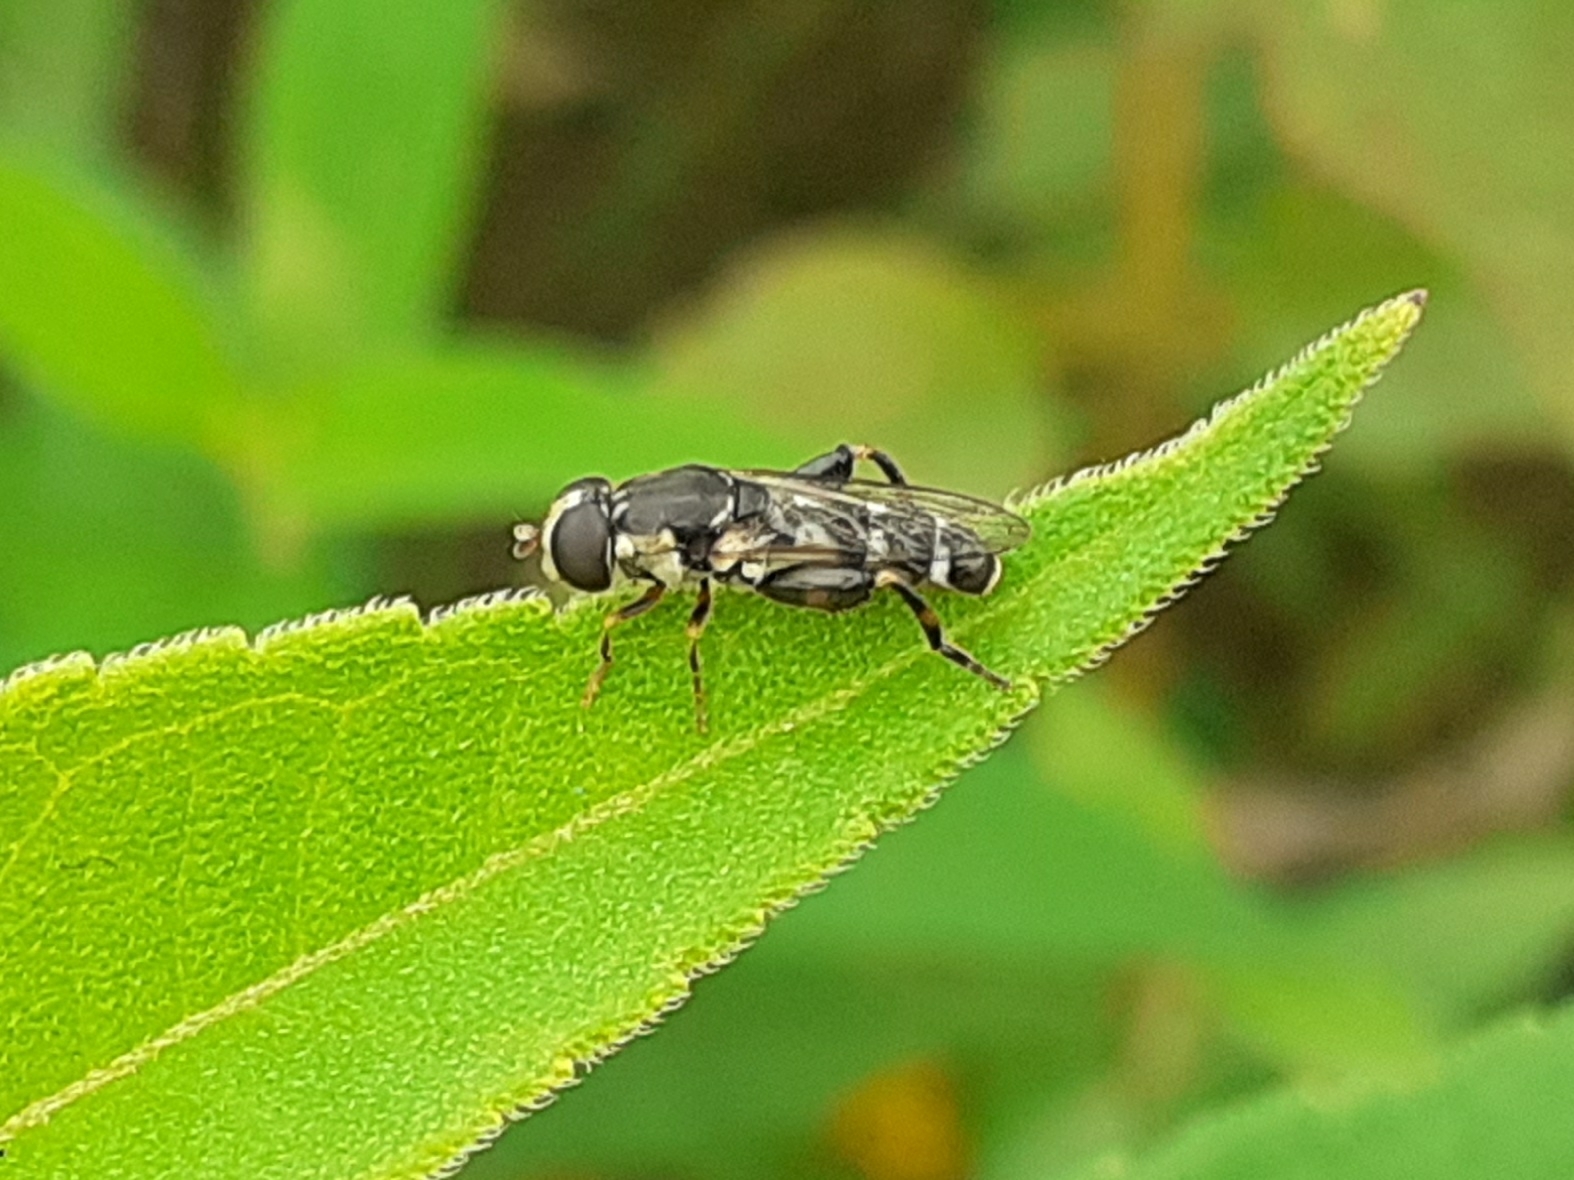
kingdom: Animalia
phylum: Arthropoda
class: Insecta
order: Diptera
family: Syrphidae
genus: Syritta
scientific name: Syritta pipiens
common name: Hover fly
